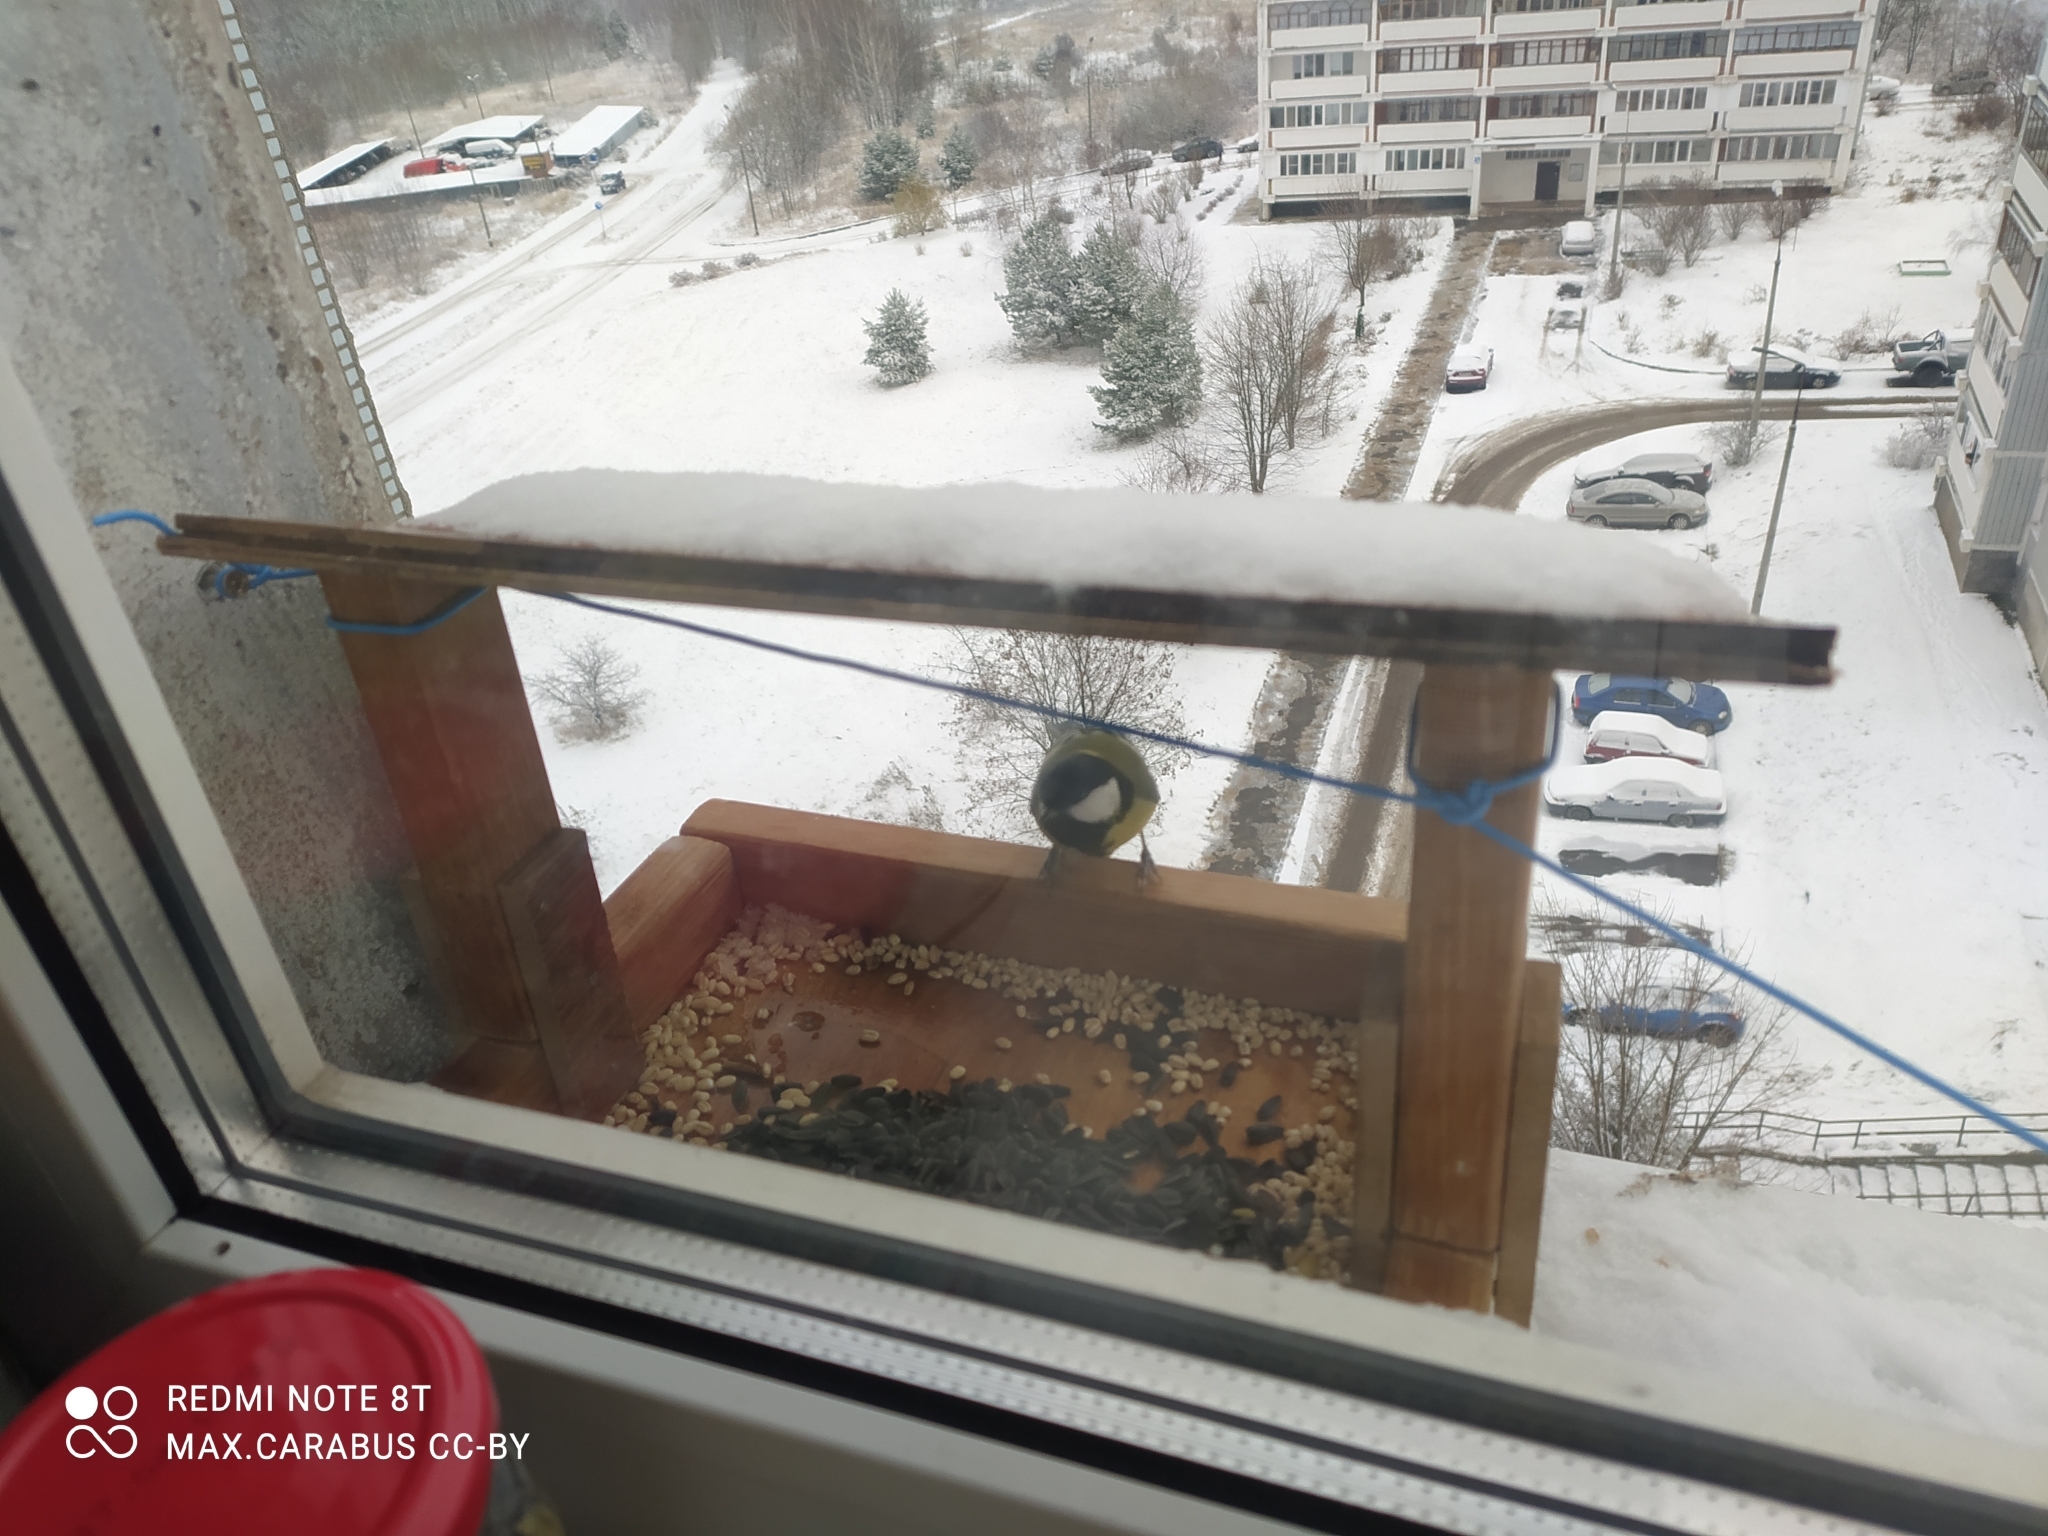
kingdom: Animalia
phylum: Chordata
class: Aves
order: Passeriformes
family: Paridae
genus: Parus
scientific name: Parus major
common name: Great tit
